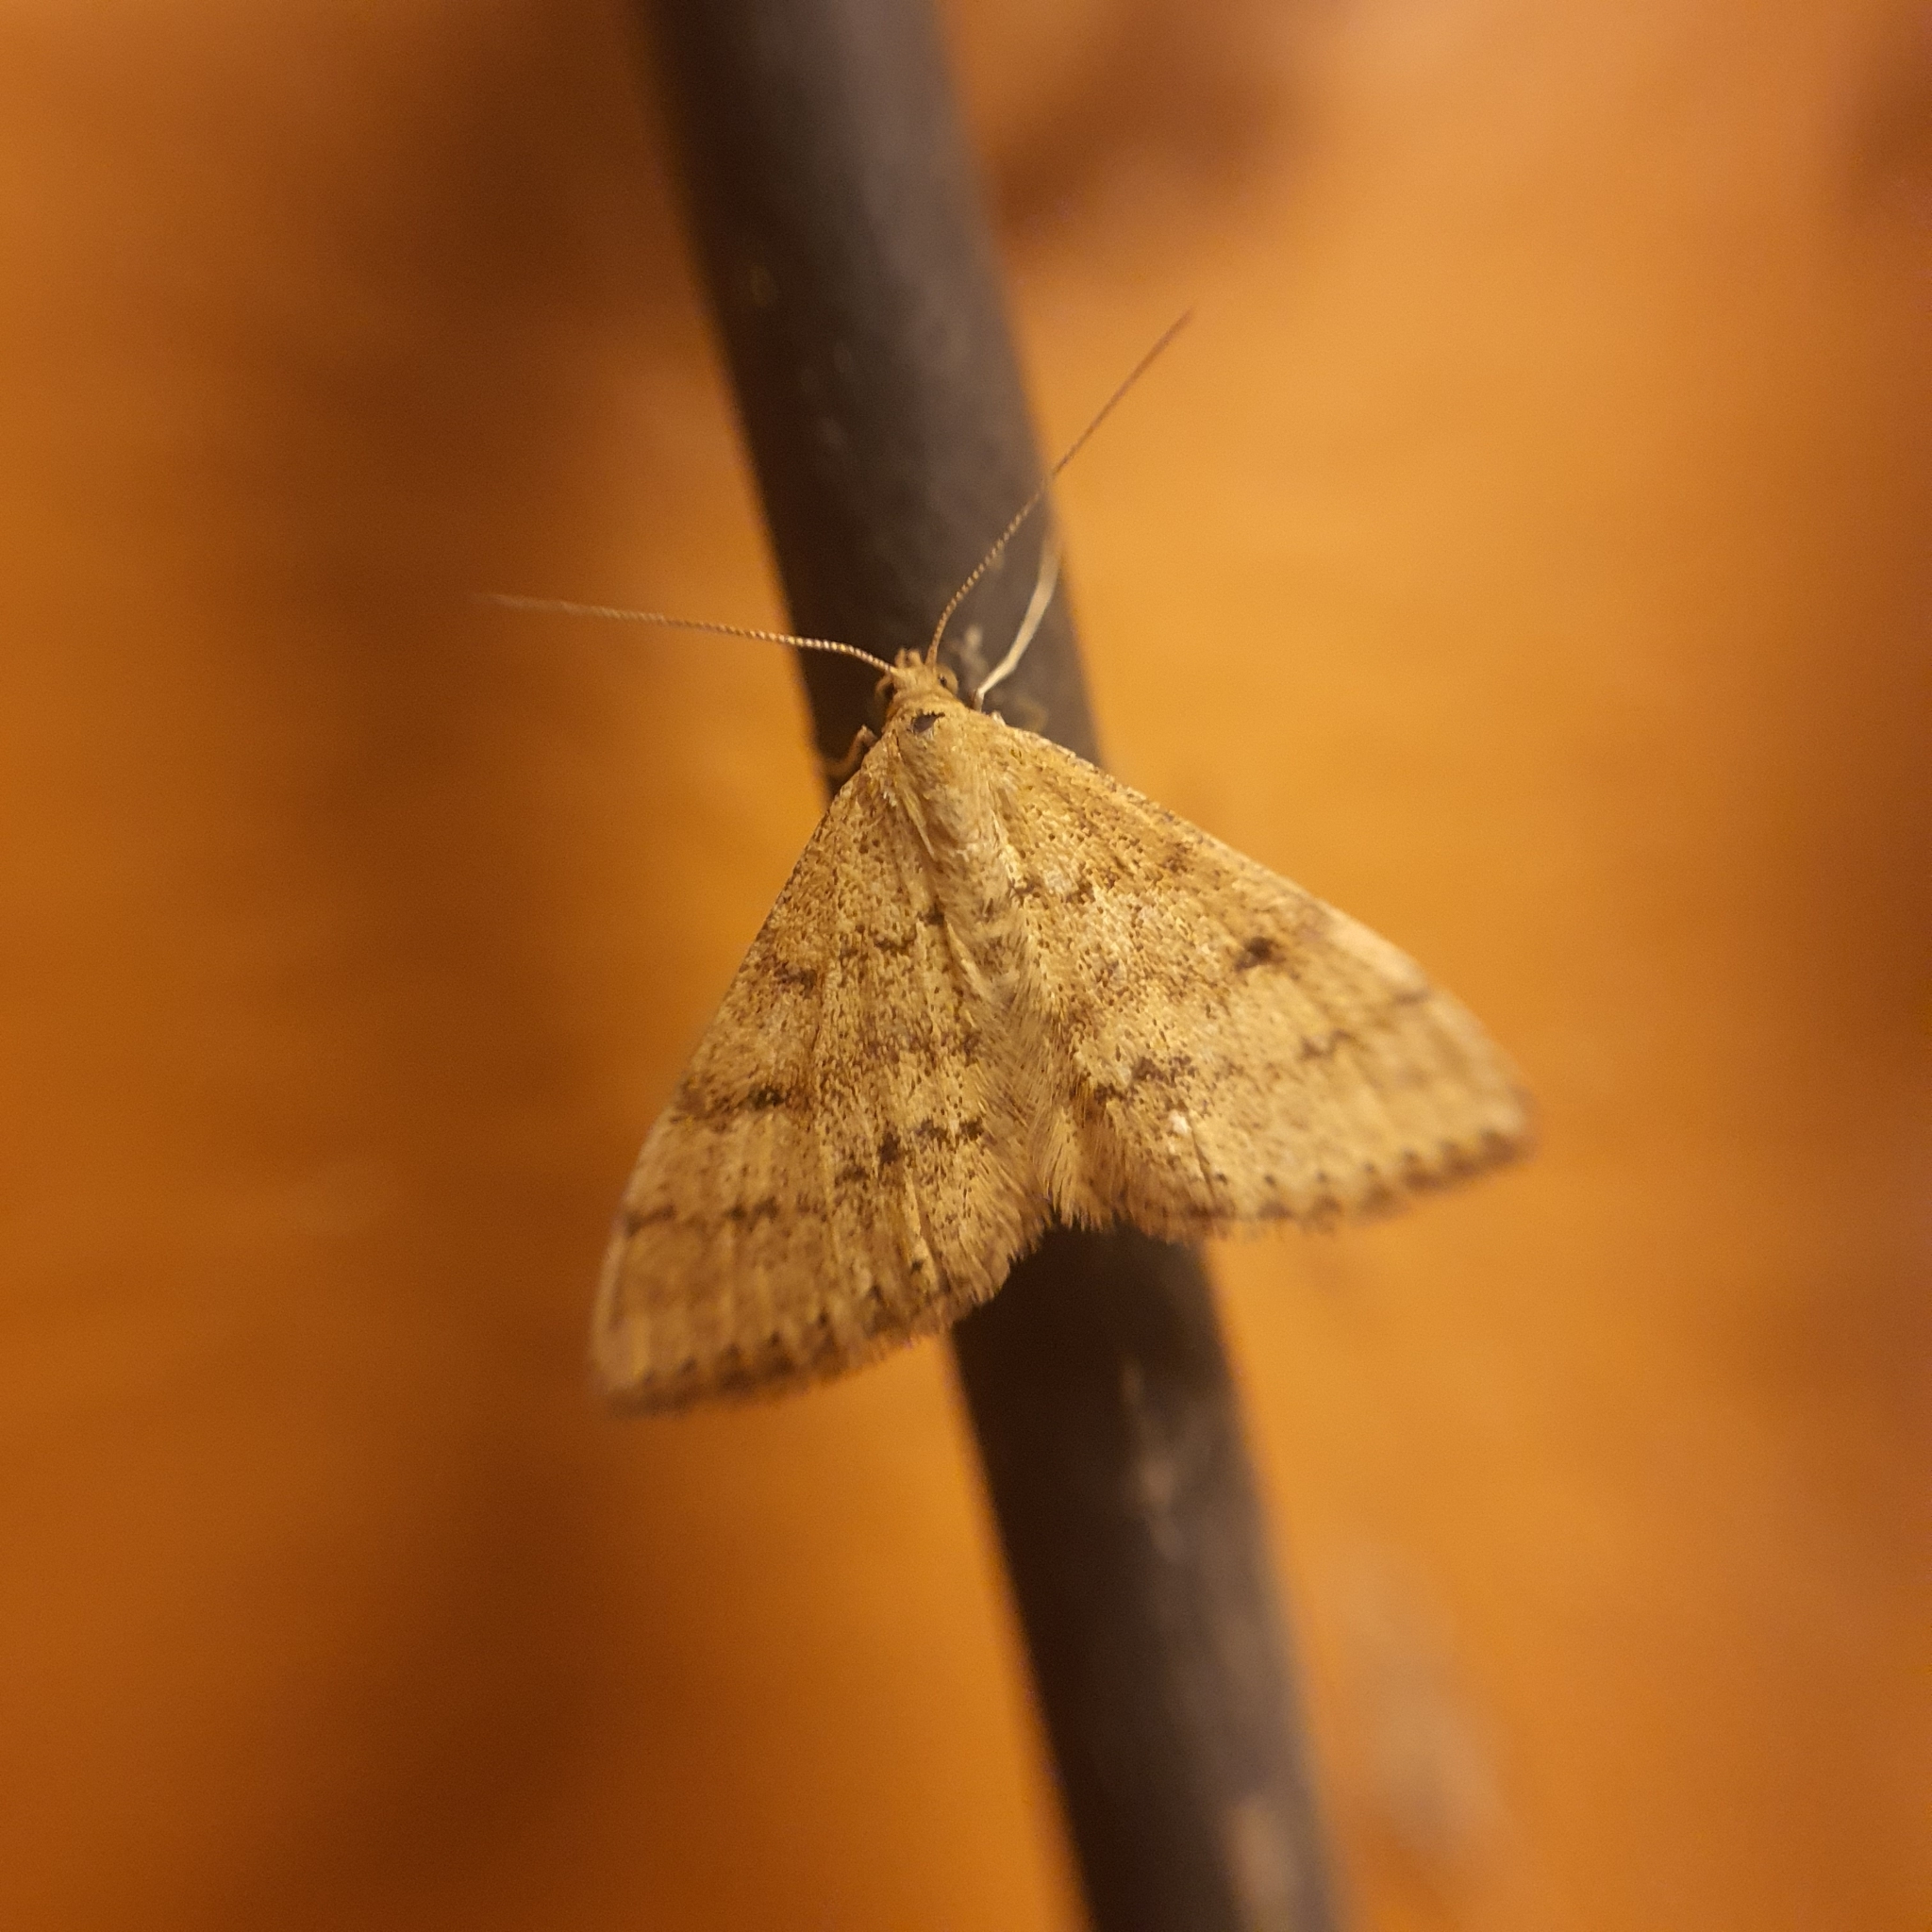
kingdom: Animalia
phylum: Arthropoda
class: Insecta
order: Lepidoptera
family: Geometridae
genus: Scopula
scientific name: Scopula rubraria
